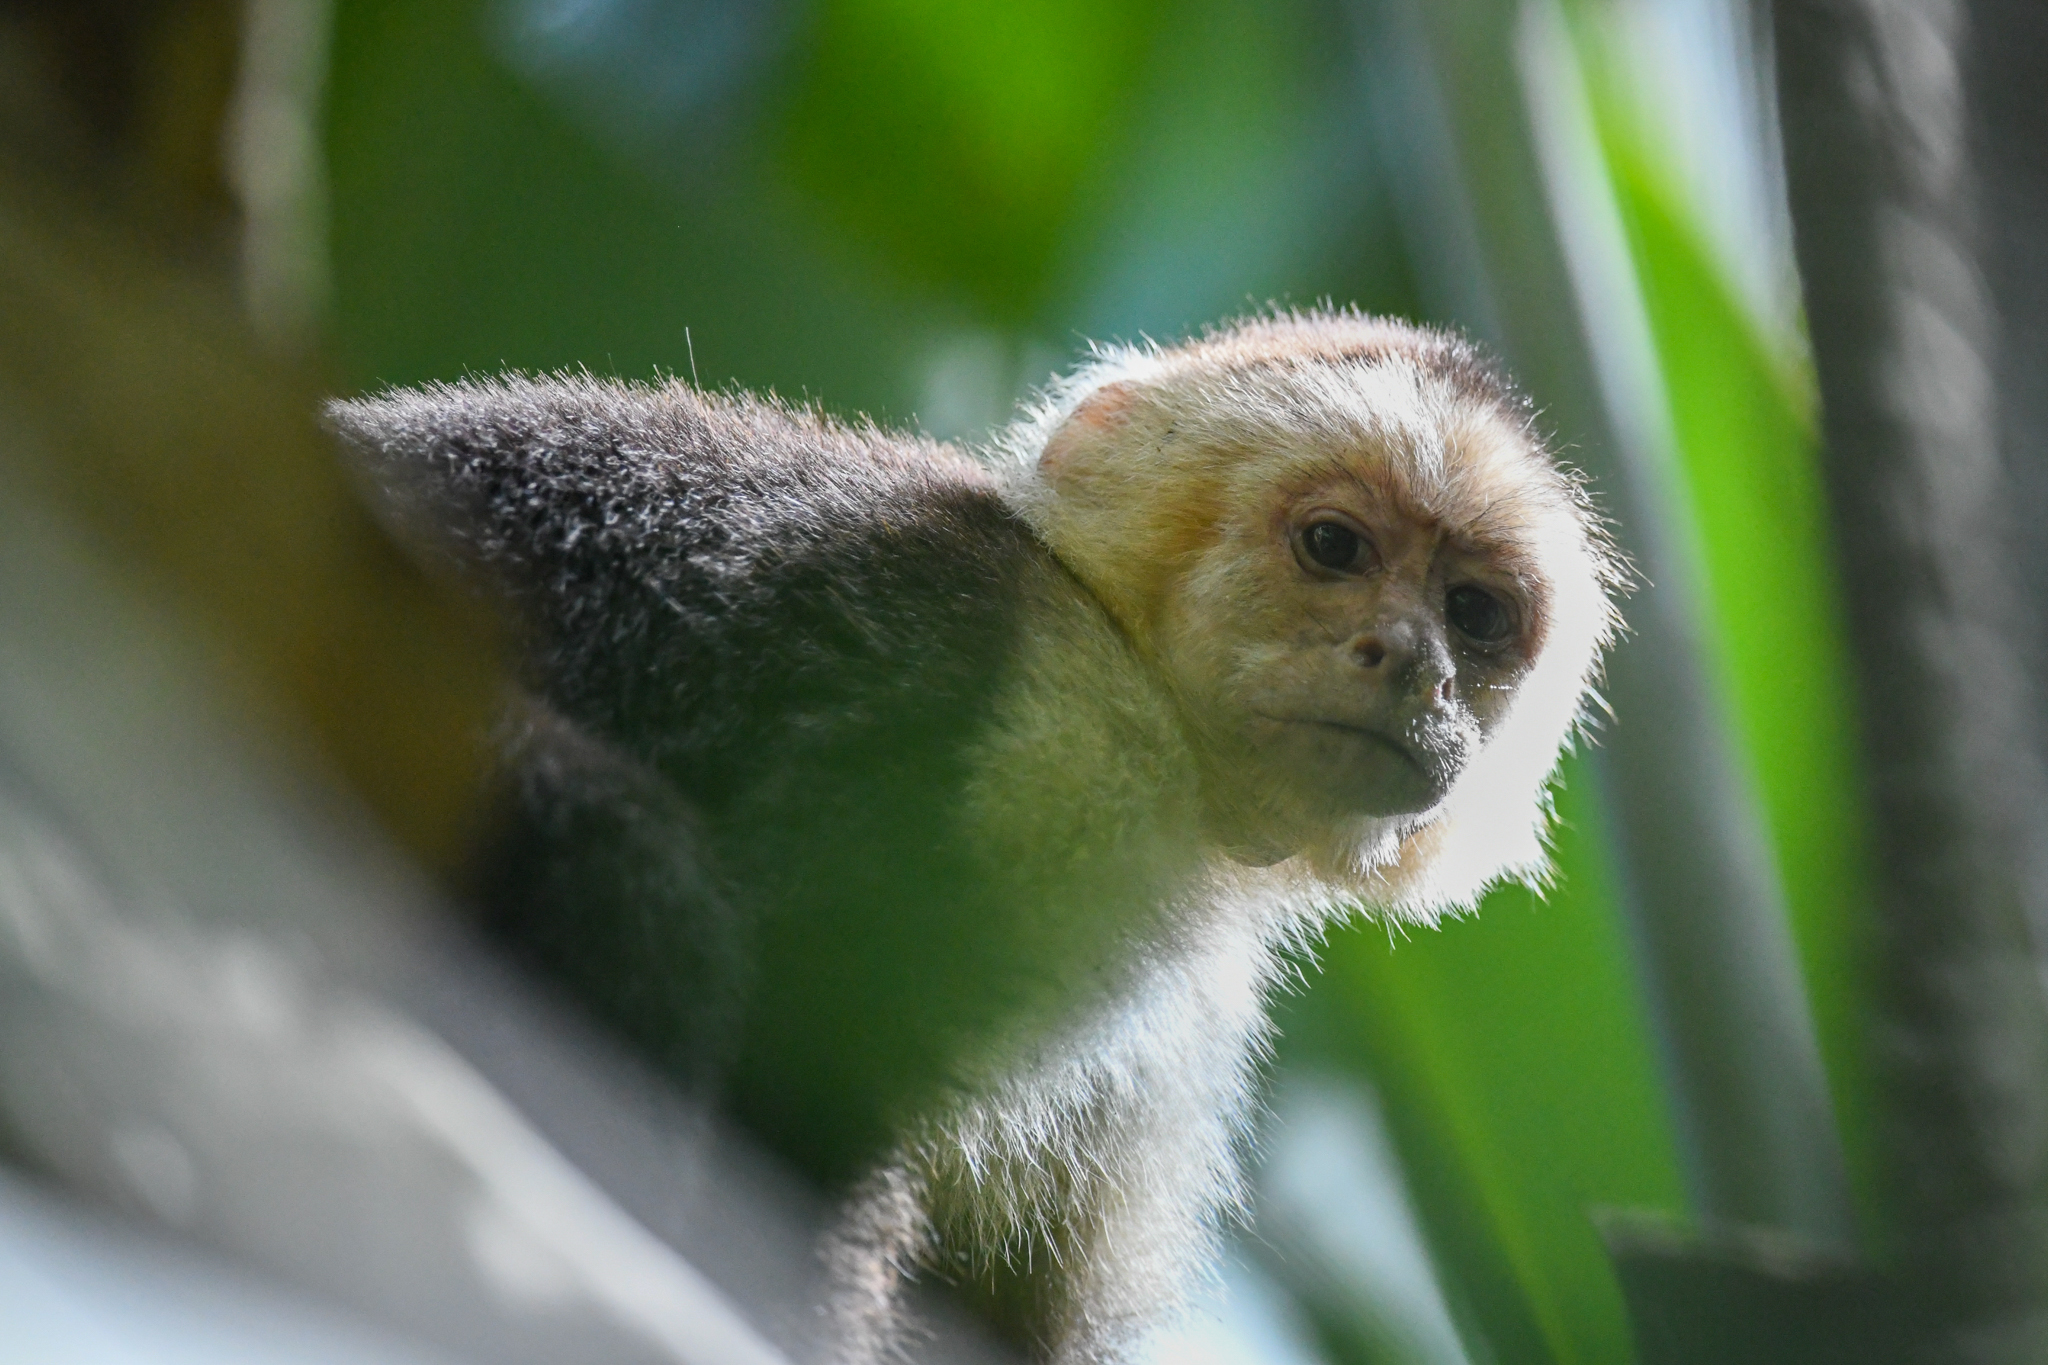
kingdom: Animalia
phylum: Chordata
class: Mammalia
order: Primates
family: Cebidae
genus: Cebus
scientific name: Cebus imitator
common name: Panamanian white-faced capuchin
